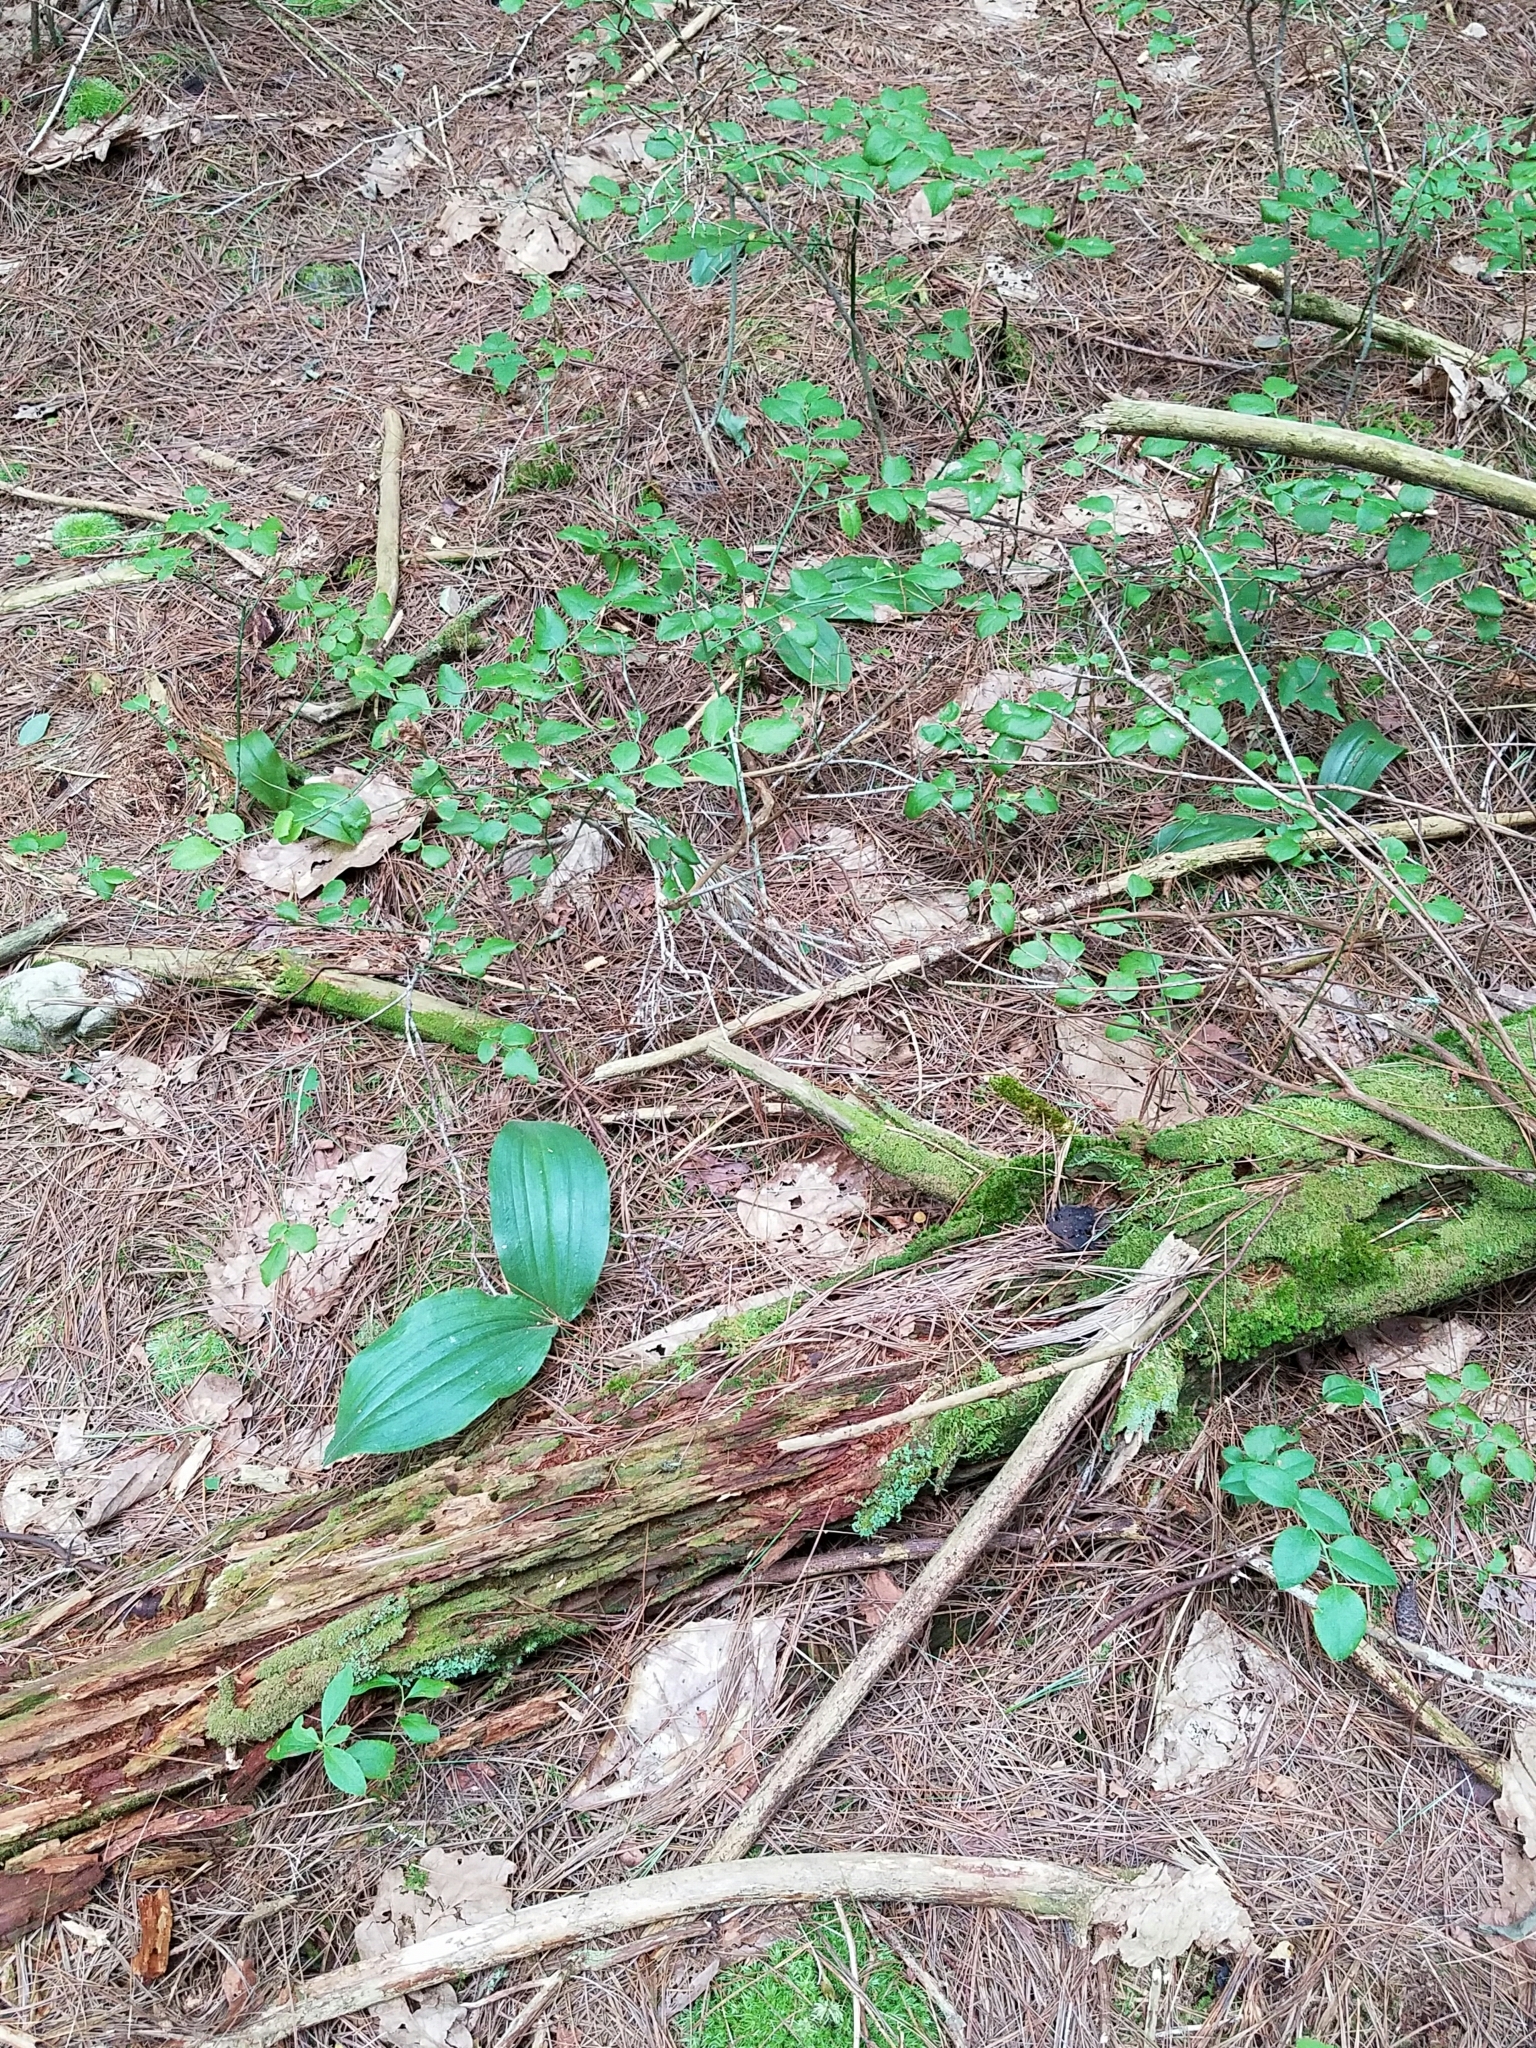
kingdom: Plantae
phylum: Tracheophyta
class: Liliopsida
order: Asparagales
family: Orchidaceae
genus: Cypripedium
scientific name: Cypripedium acaule
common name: Pink lady's-slipper
